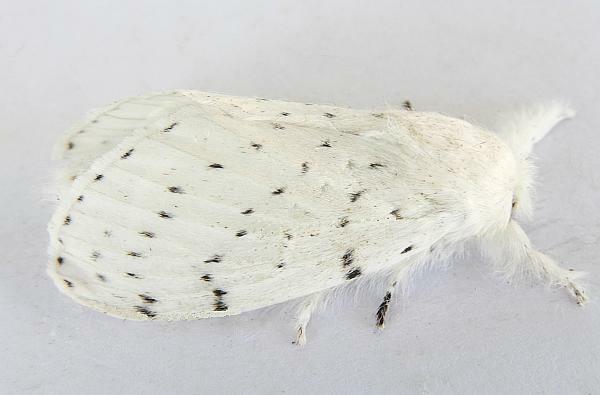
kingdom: Animalia
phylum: Arthropoda
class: Insecta
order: Lepidoptera
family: Lasiocampidae
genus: Artace
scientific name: Artace cribrarius
